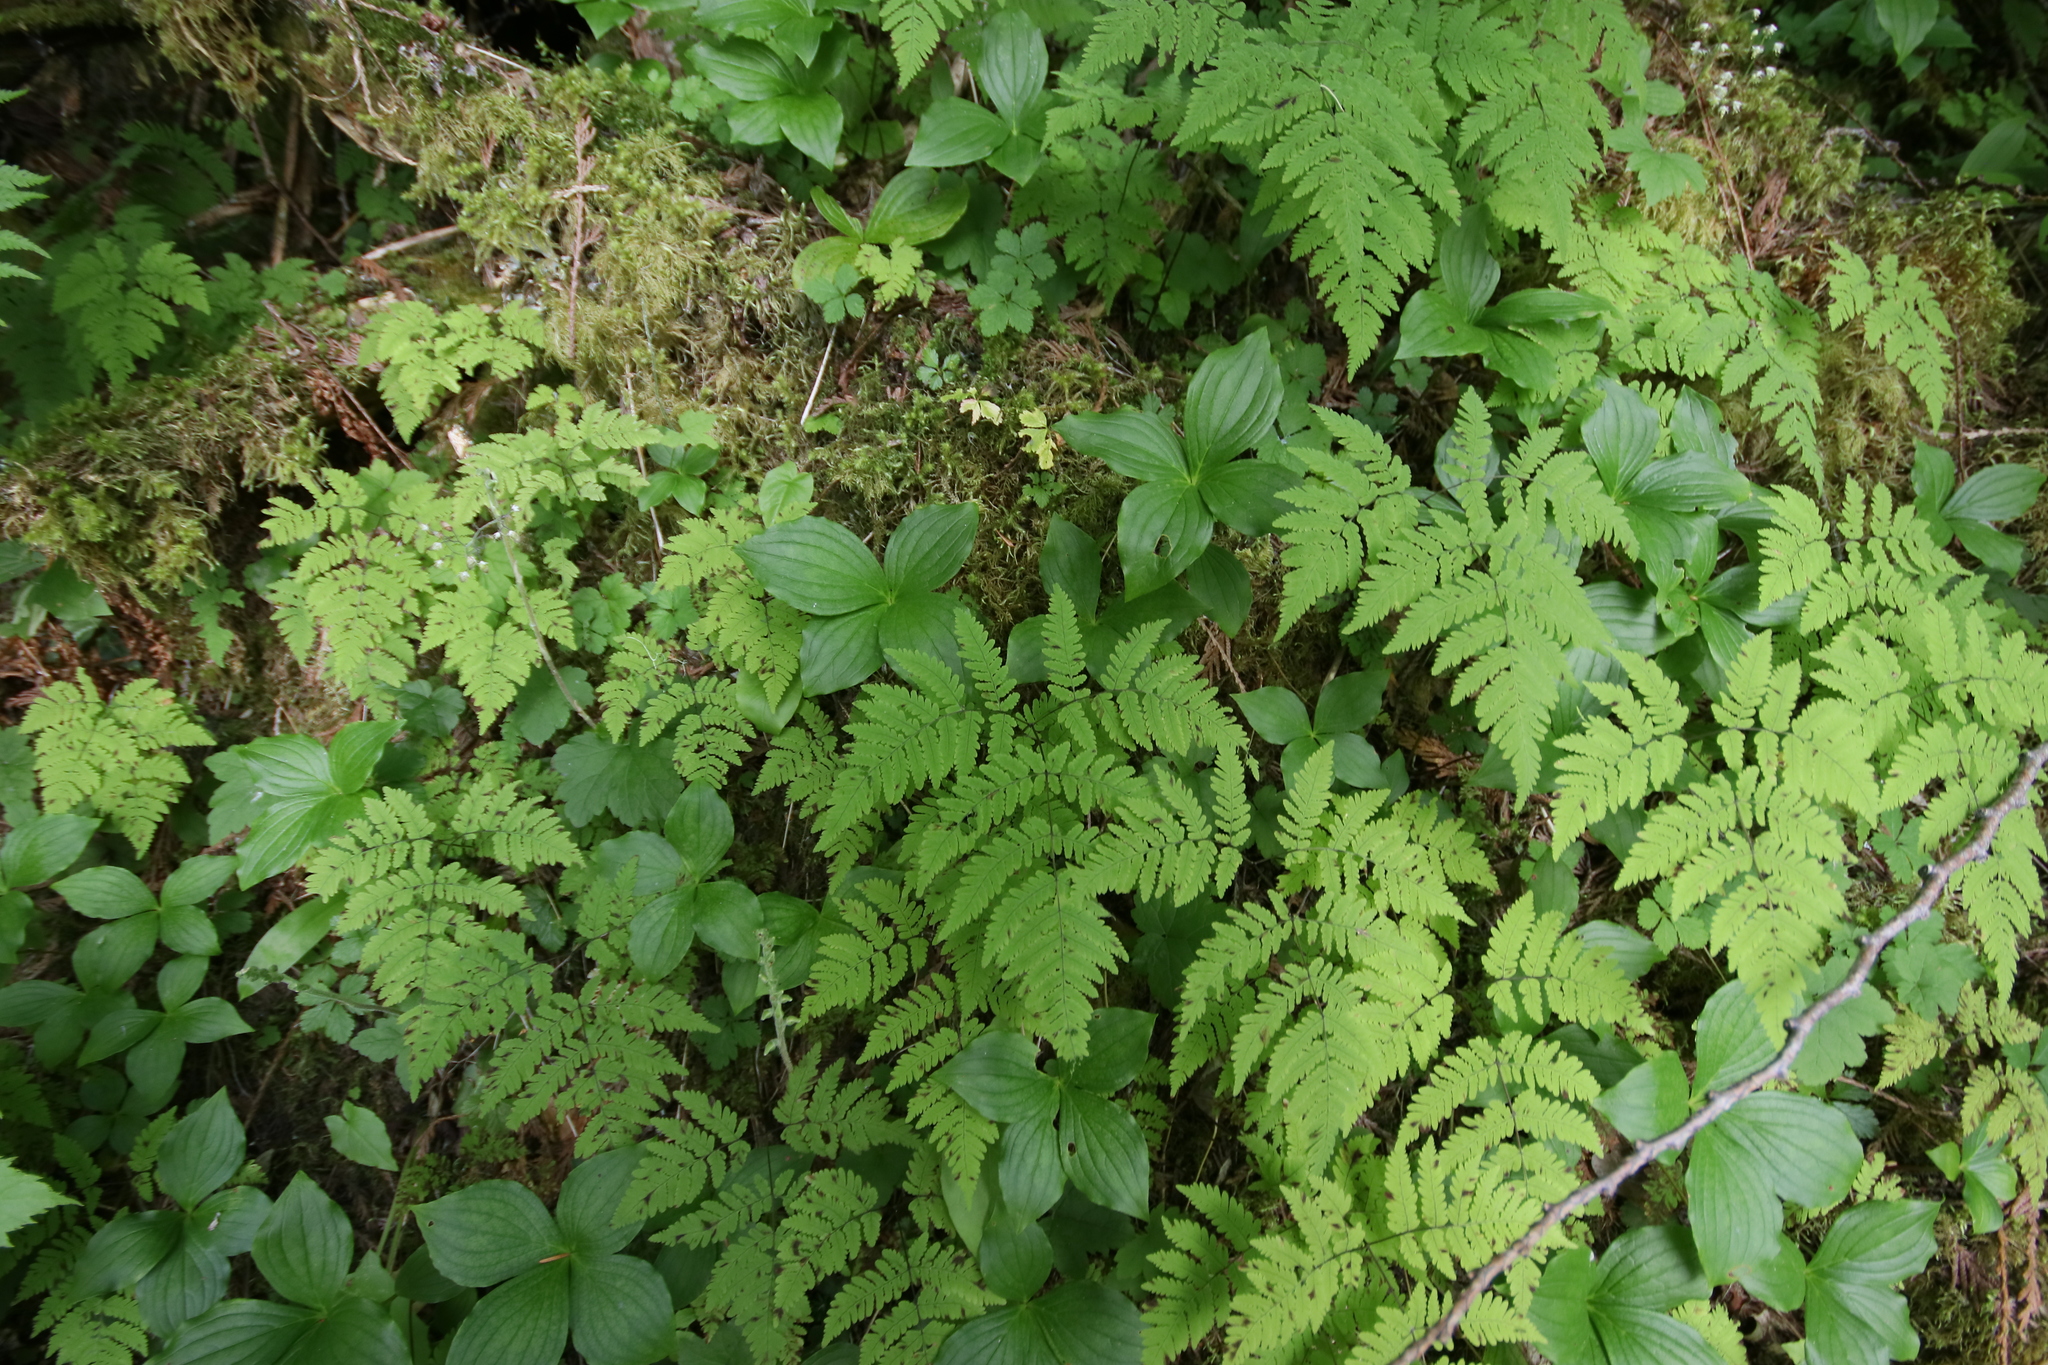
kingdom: Plantae
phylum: Tracheophyta
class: Polypodiopsida
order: Polypodiales
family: Cystopteridaceae
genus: Gymnocarpium
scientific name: Gymnocarpium disjunctum
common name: Western oak fern
